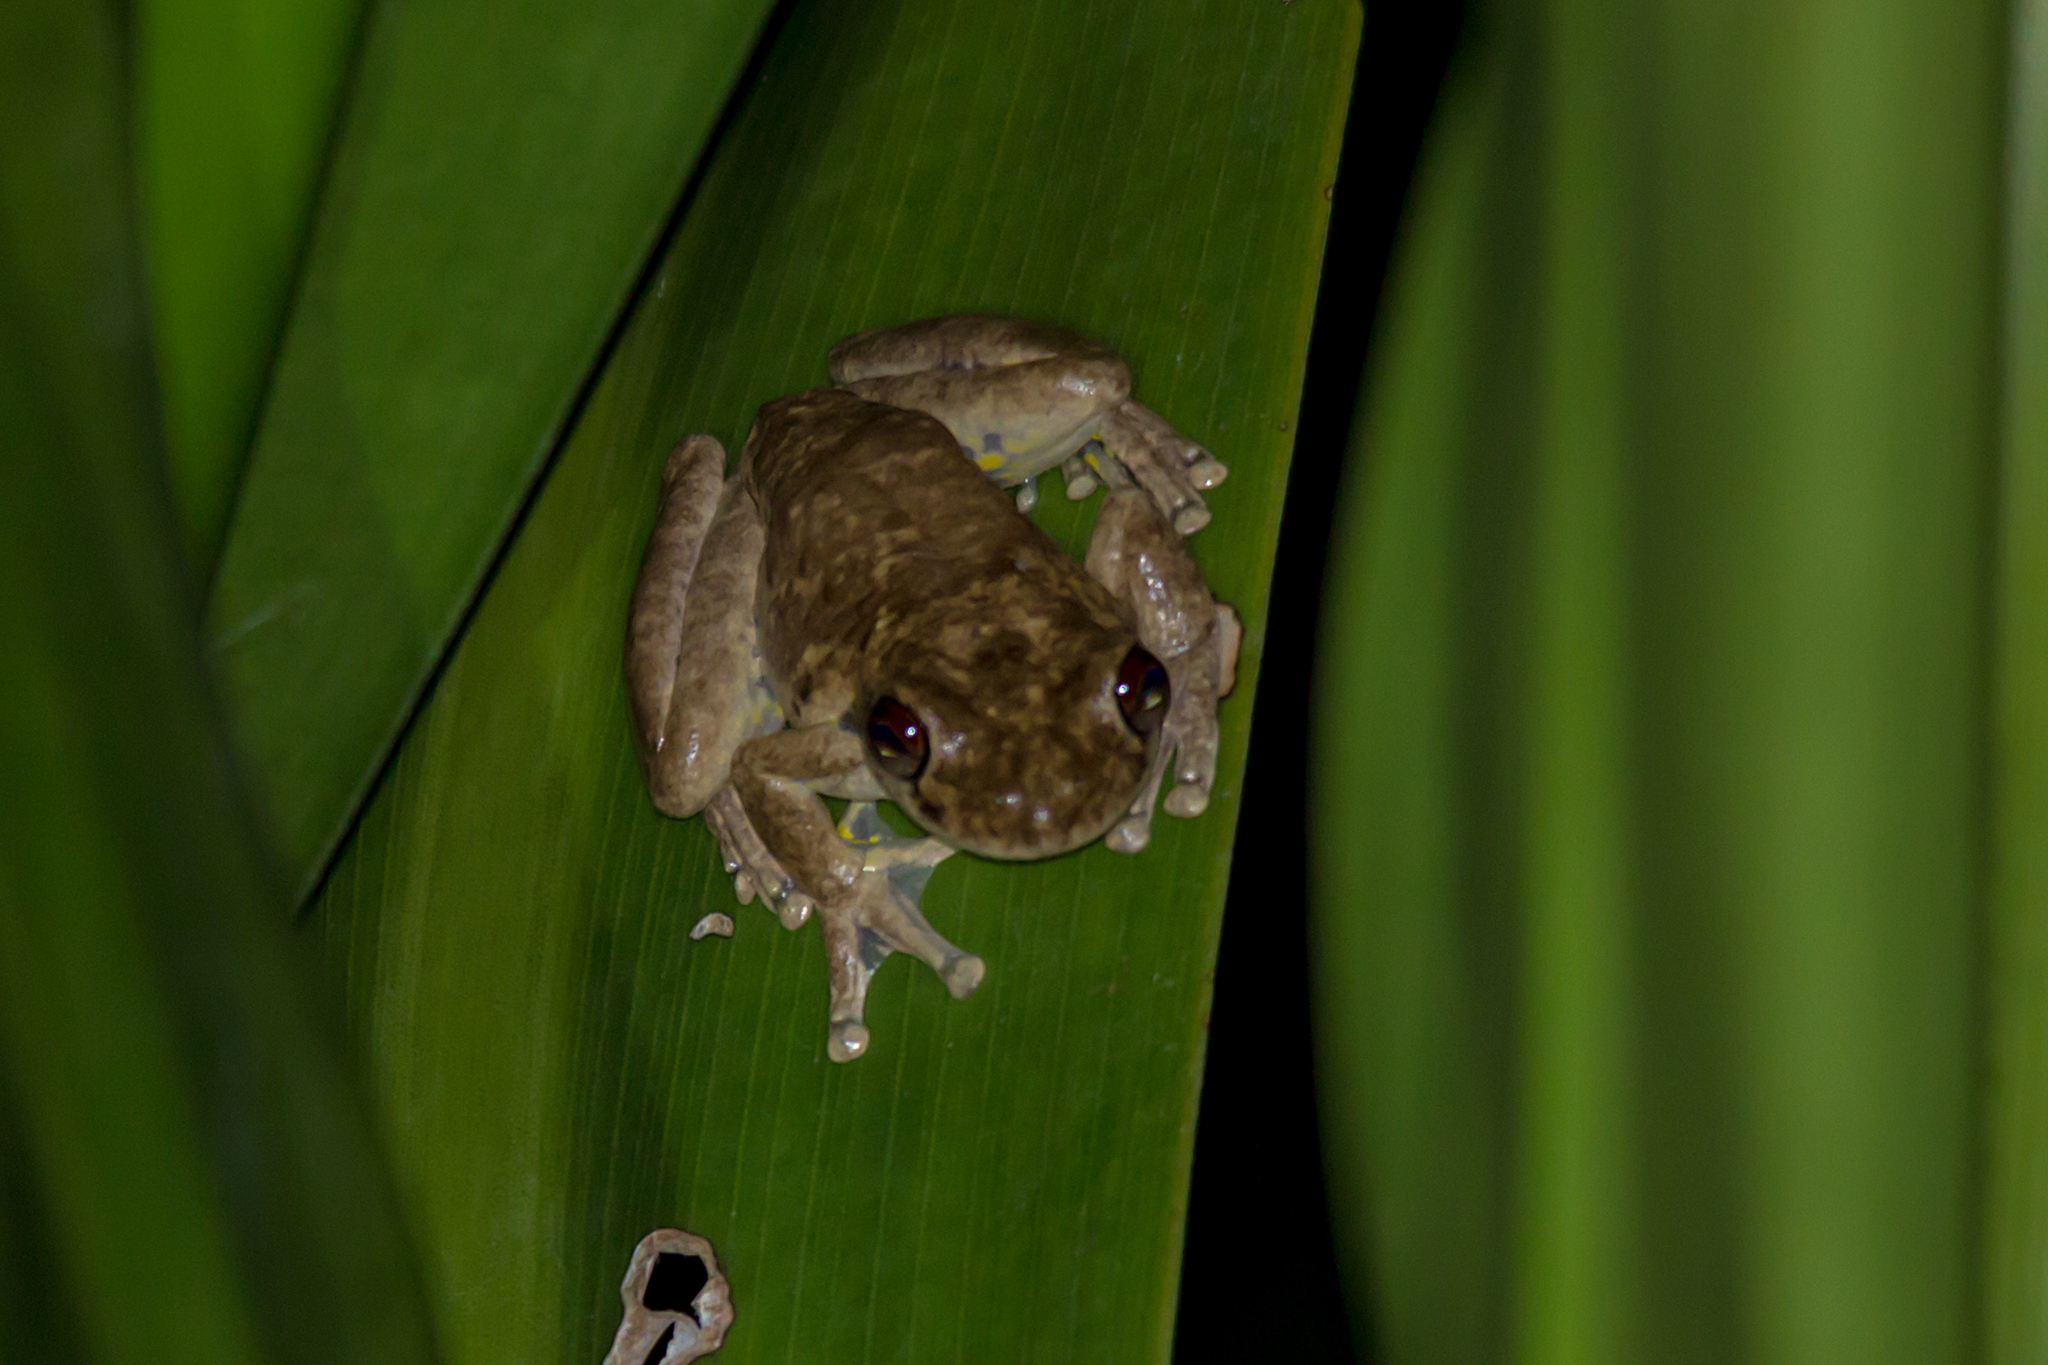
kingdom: Animalia
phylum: Chordata
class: Amphibia
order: Anura
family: Pelodryadidae
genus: Litoria
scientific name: Litoria rothii
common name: Roth’s tree frog
